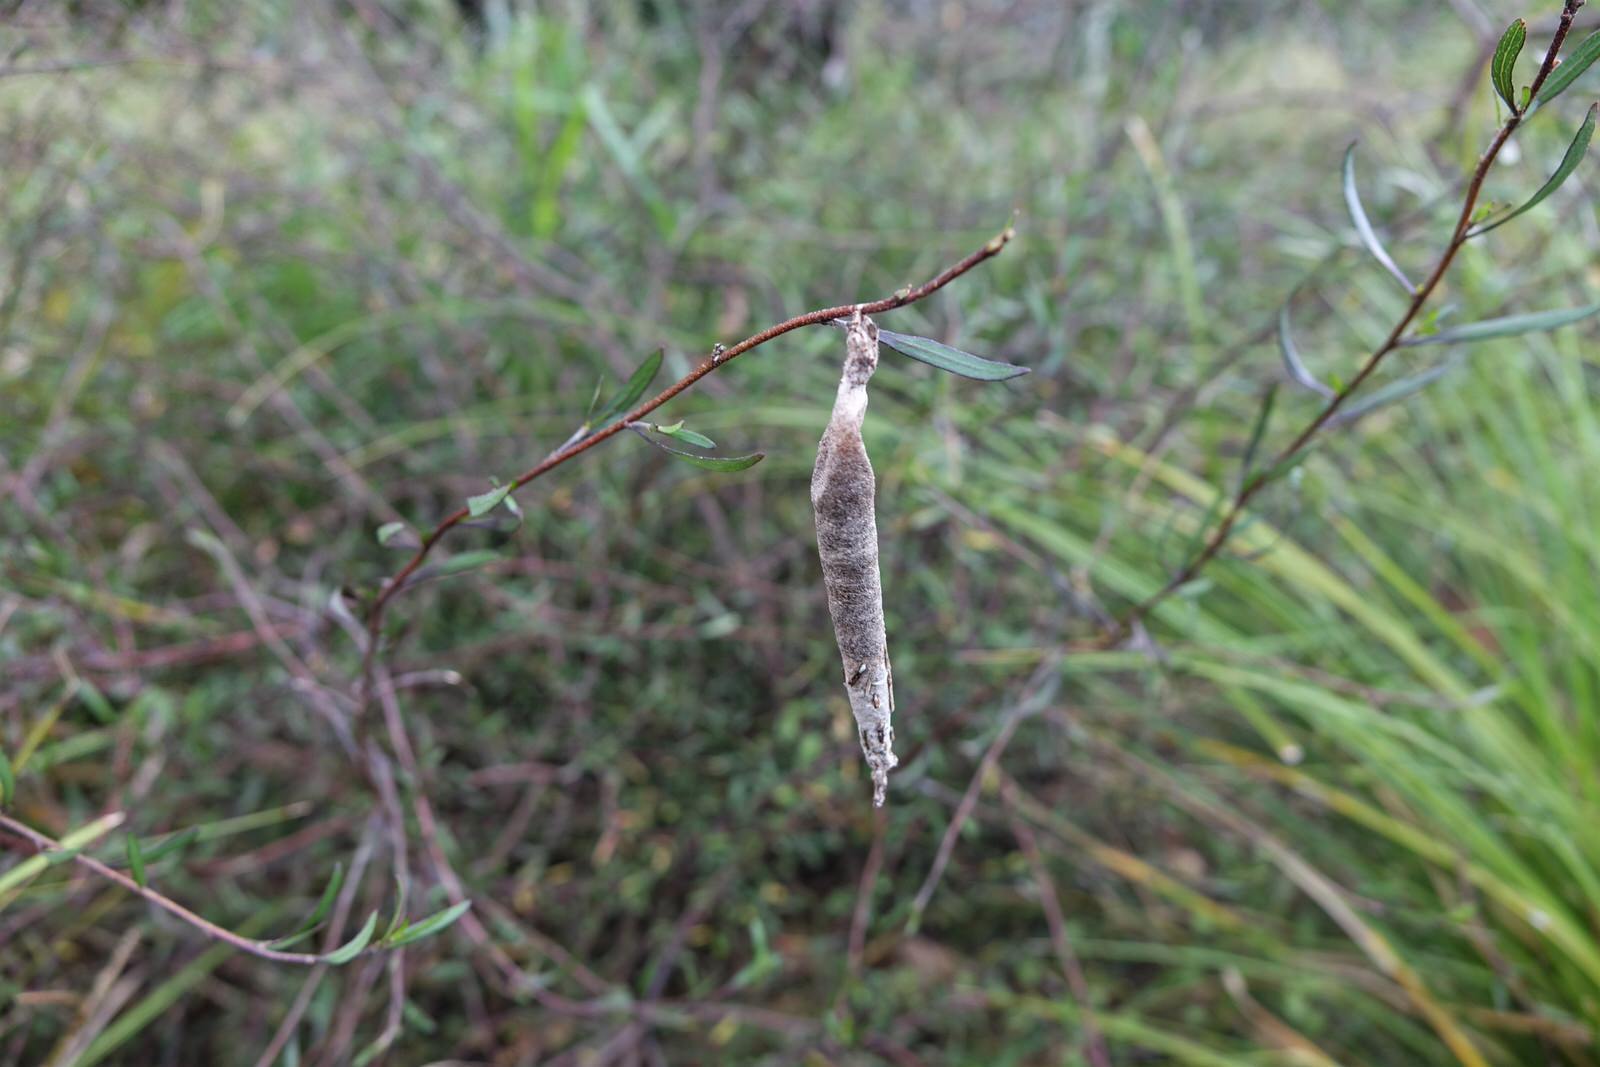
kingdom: Animalia
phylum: Arthropoda
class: Insecta
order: Lepidoptera
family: Psychidae
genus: Liothula
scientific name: Liothula omnivora
